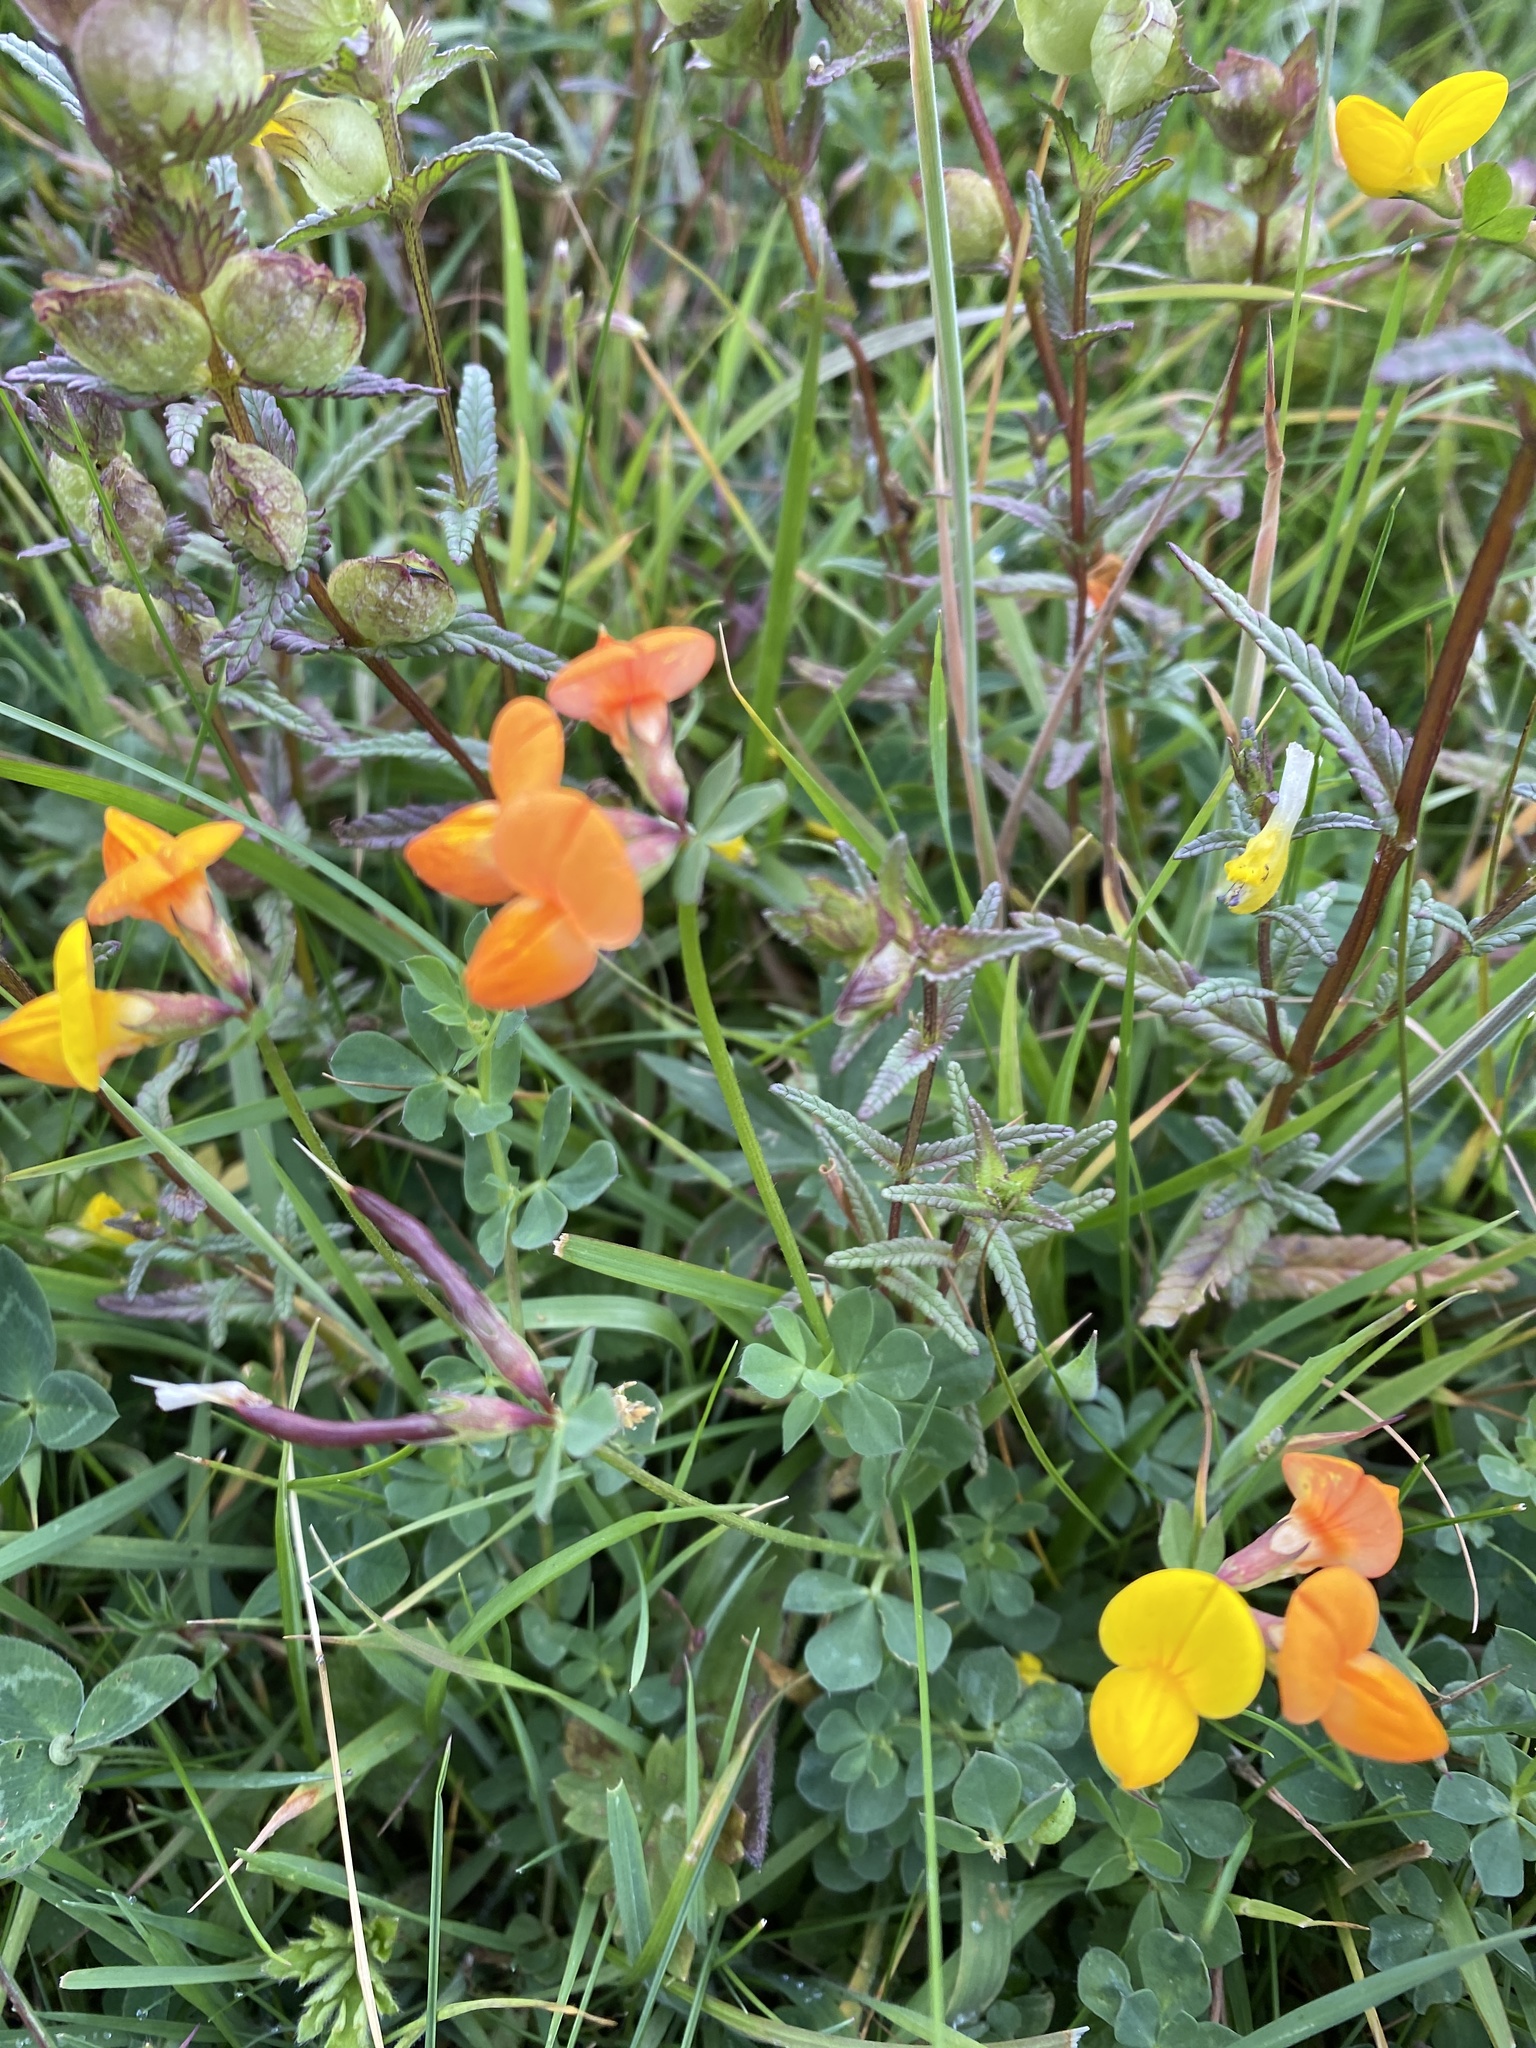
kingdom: Plantae
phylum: Tracheophyta
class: Magnoliopsida
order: Fabales
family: Fabaceae
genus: Lotus
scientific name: Lotus corniculatus
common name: Common bird's-foot-trefoil
